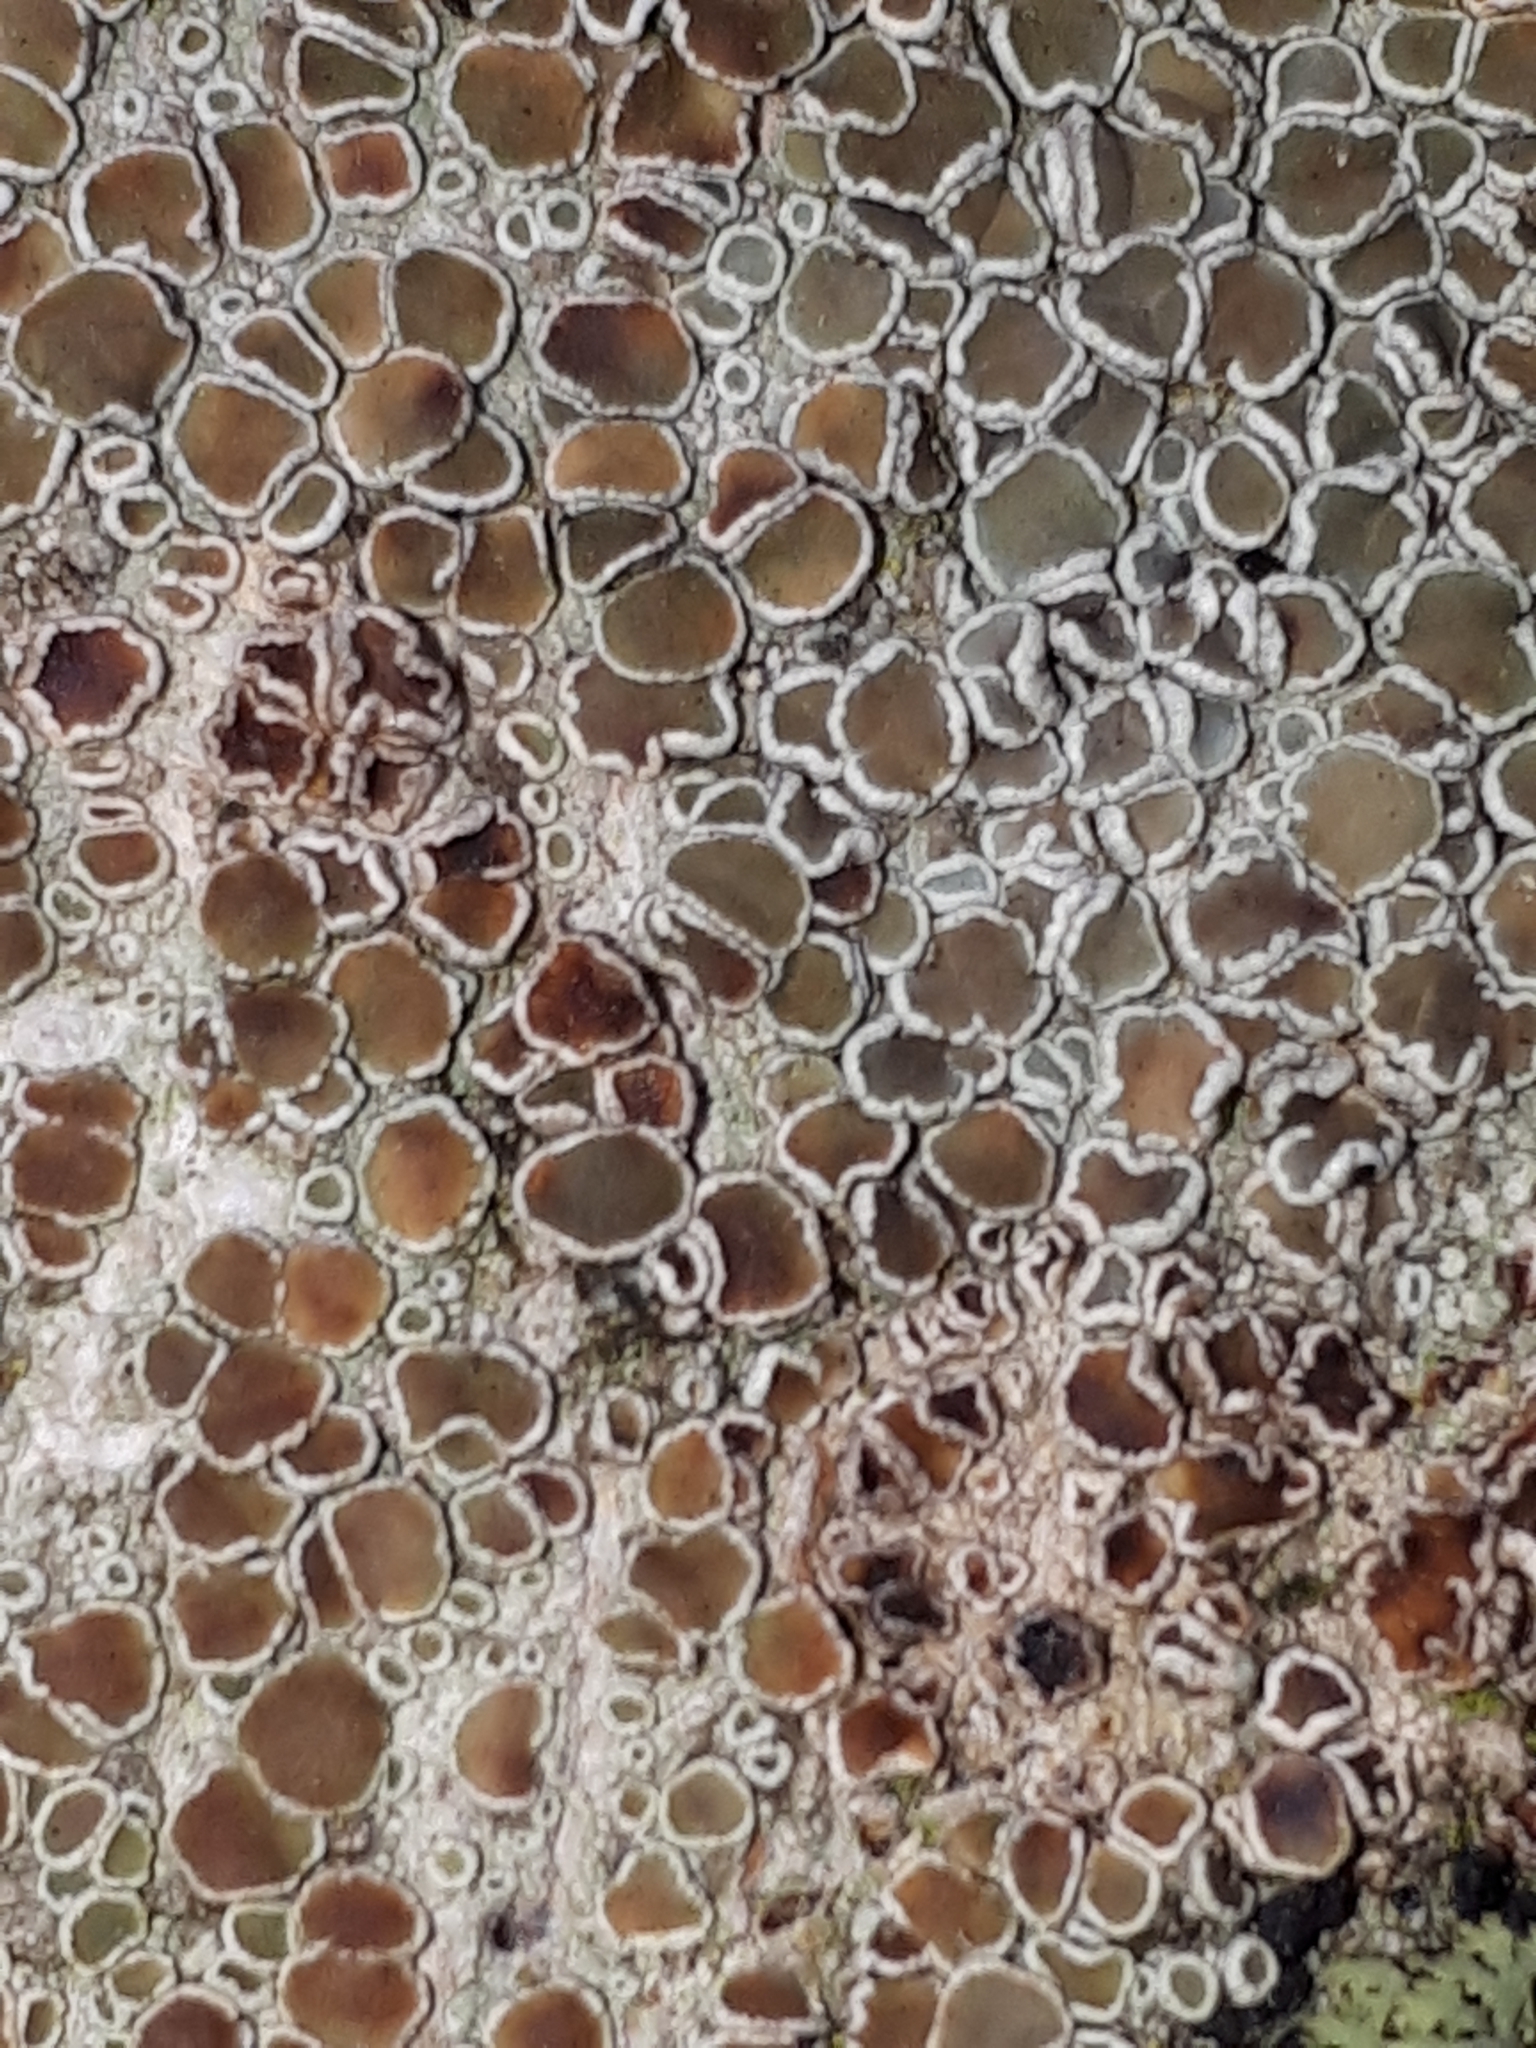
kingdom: Fungi
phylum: Ascomycota
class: Lecanoromycetes
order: Lecanorales
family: Lecanoraceae
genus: Lecanora
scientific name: Lecanora chlarotera
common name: Brown rim-lichen
